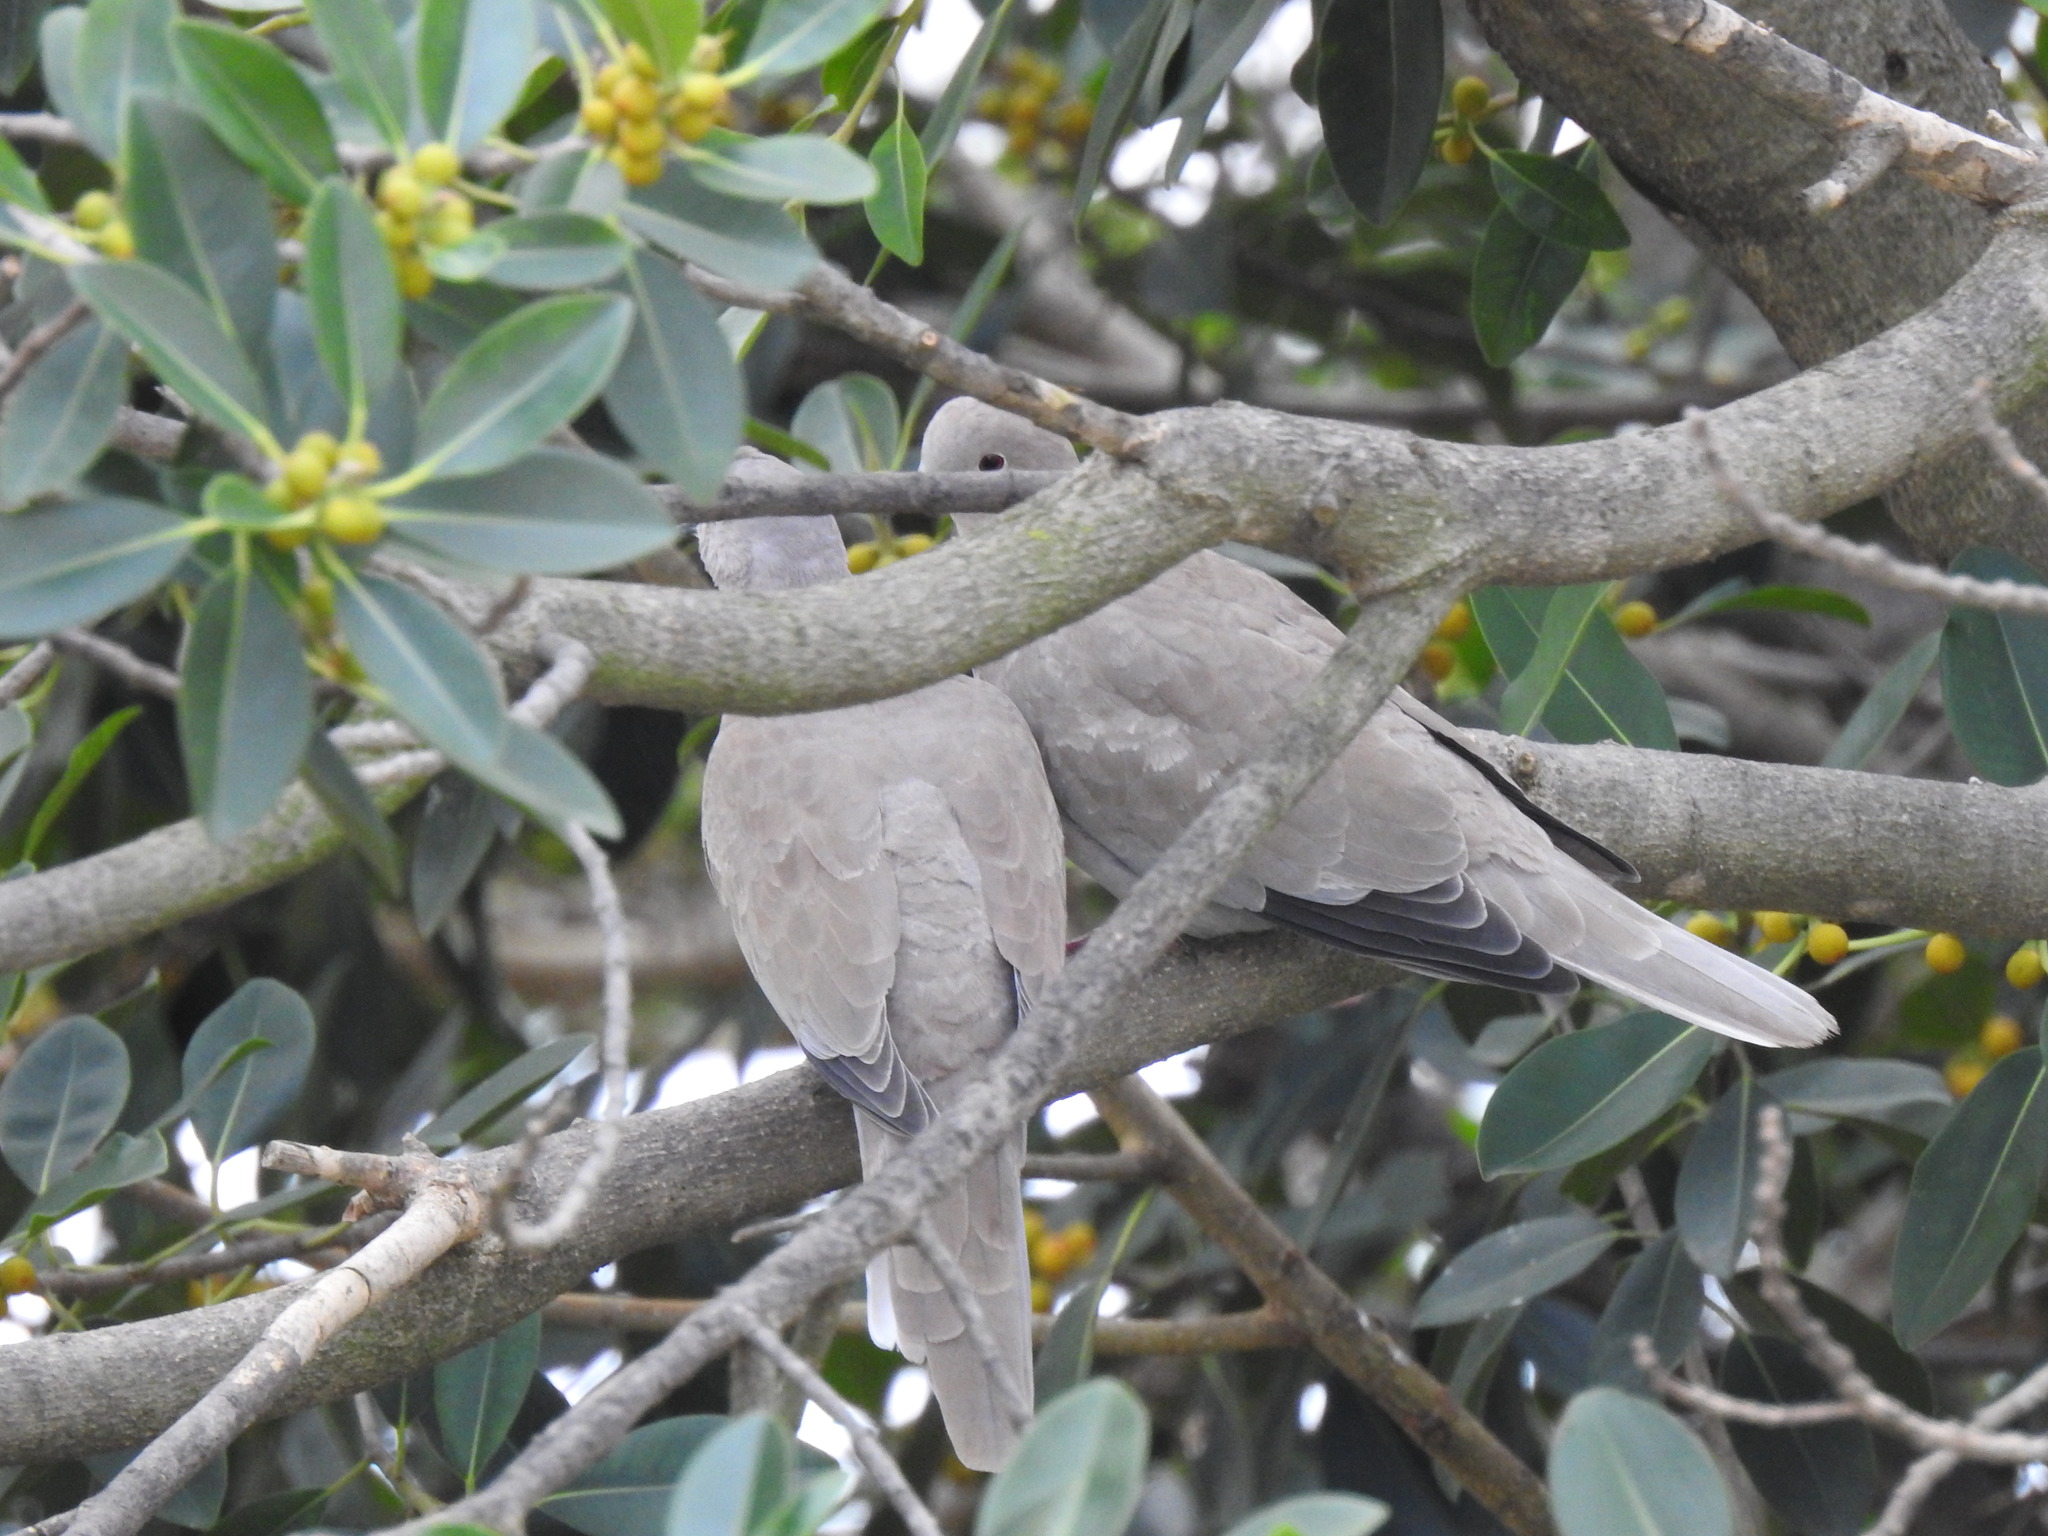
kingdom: Animalia
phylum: Chordata
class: Aves
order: Columbiformes
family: Columbidae
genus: Streptopelia
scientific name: Streptopelia decaocto
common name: Eurasian collared dove
